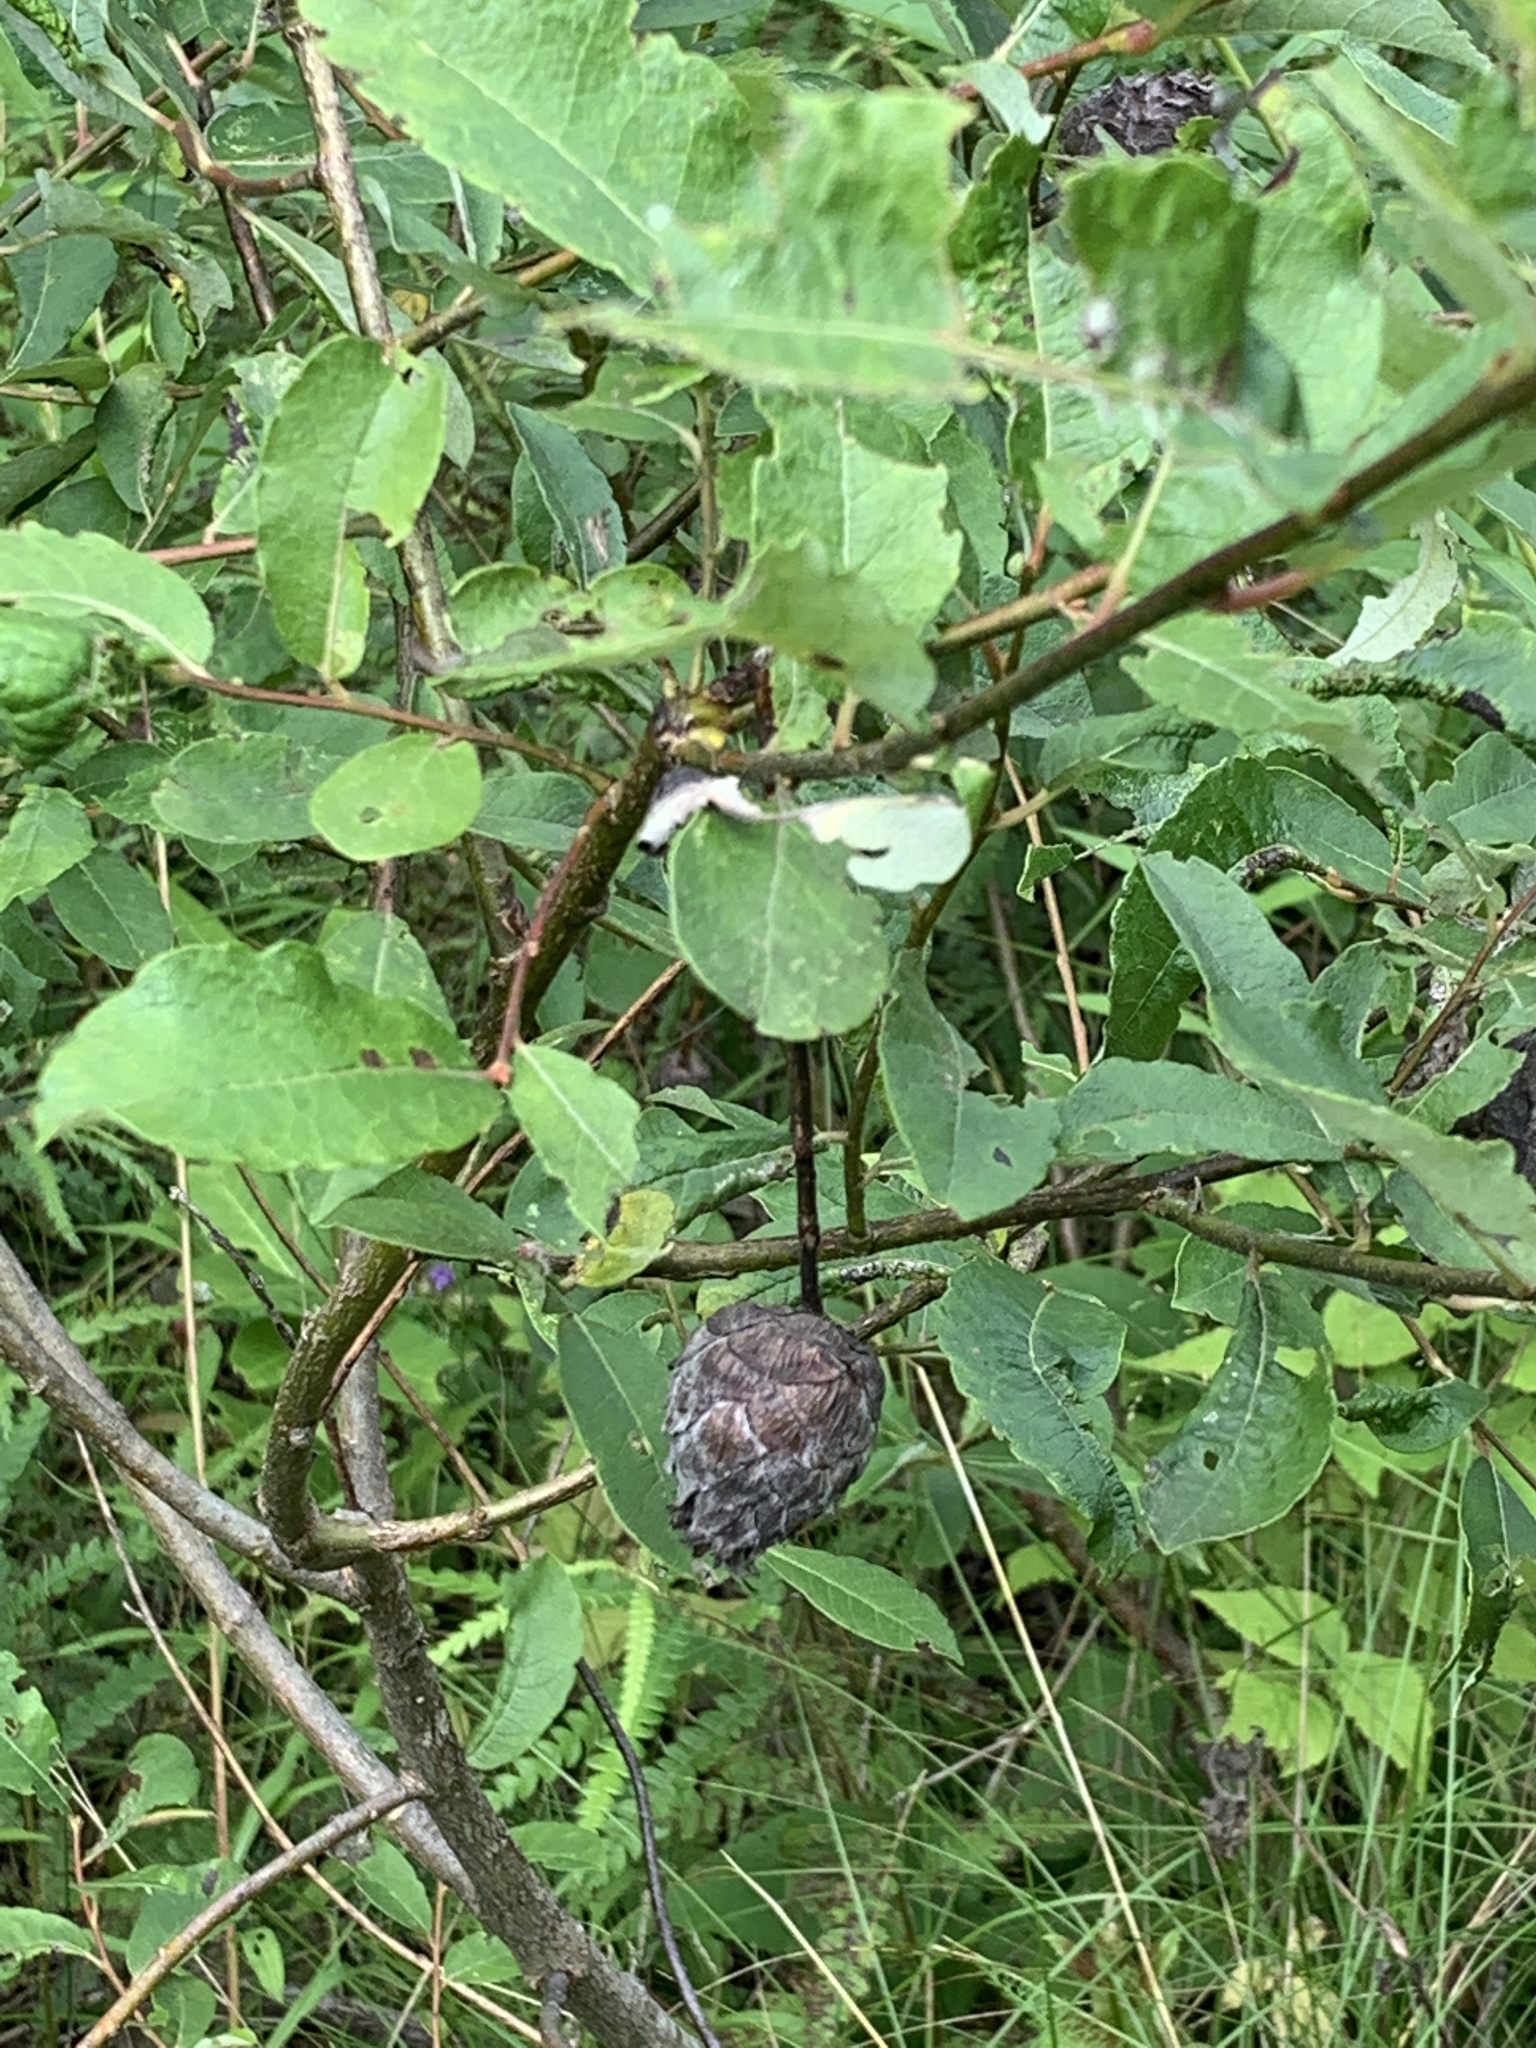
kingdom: Animalia
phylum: Arthropoda
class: Insecta
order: Diptera
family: Cecidomyiidae
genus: Rabdophaga
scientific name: Rabdophaga strobiloides
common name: Willow pinecone gall midge
